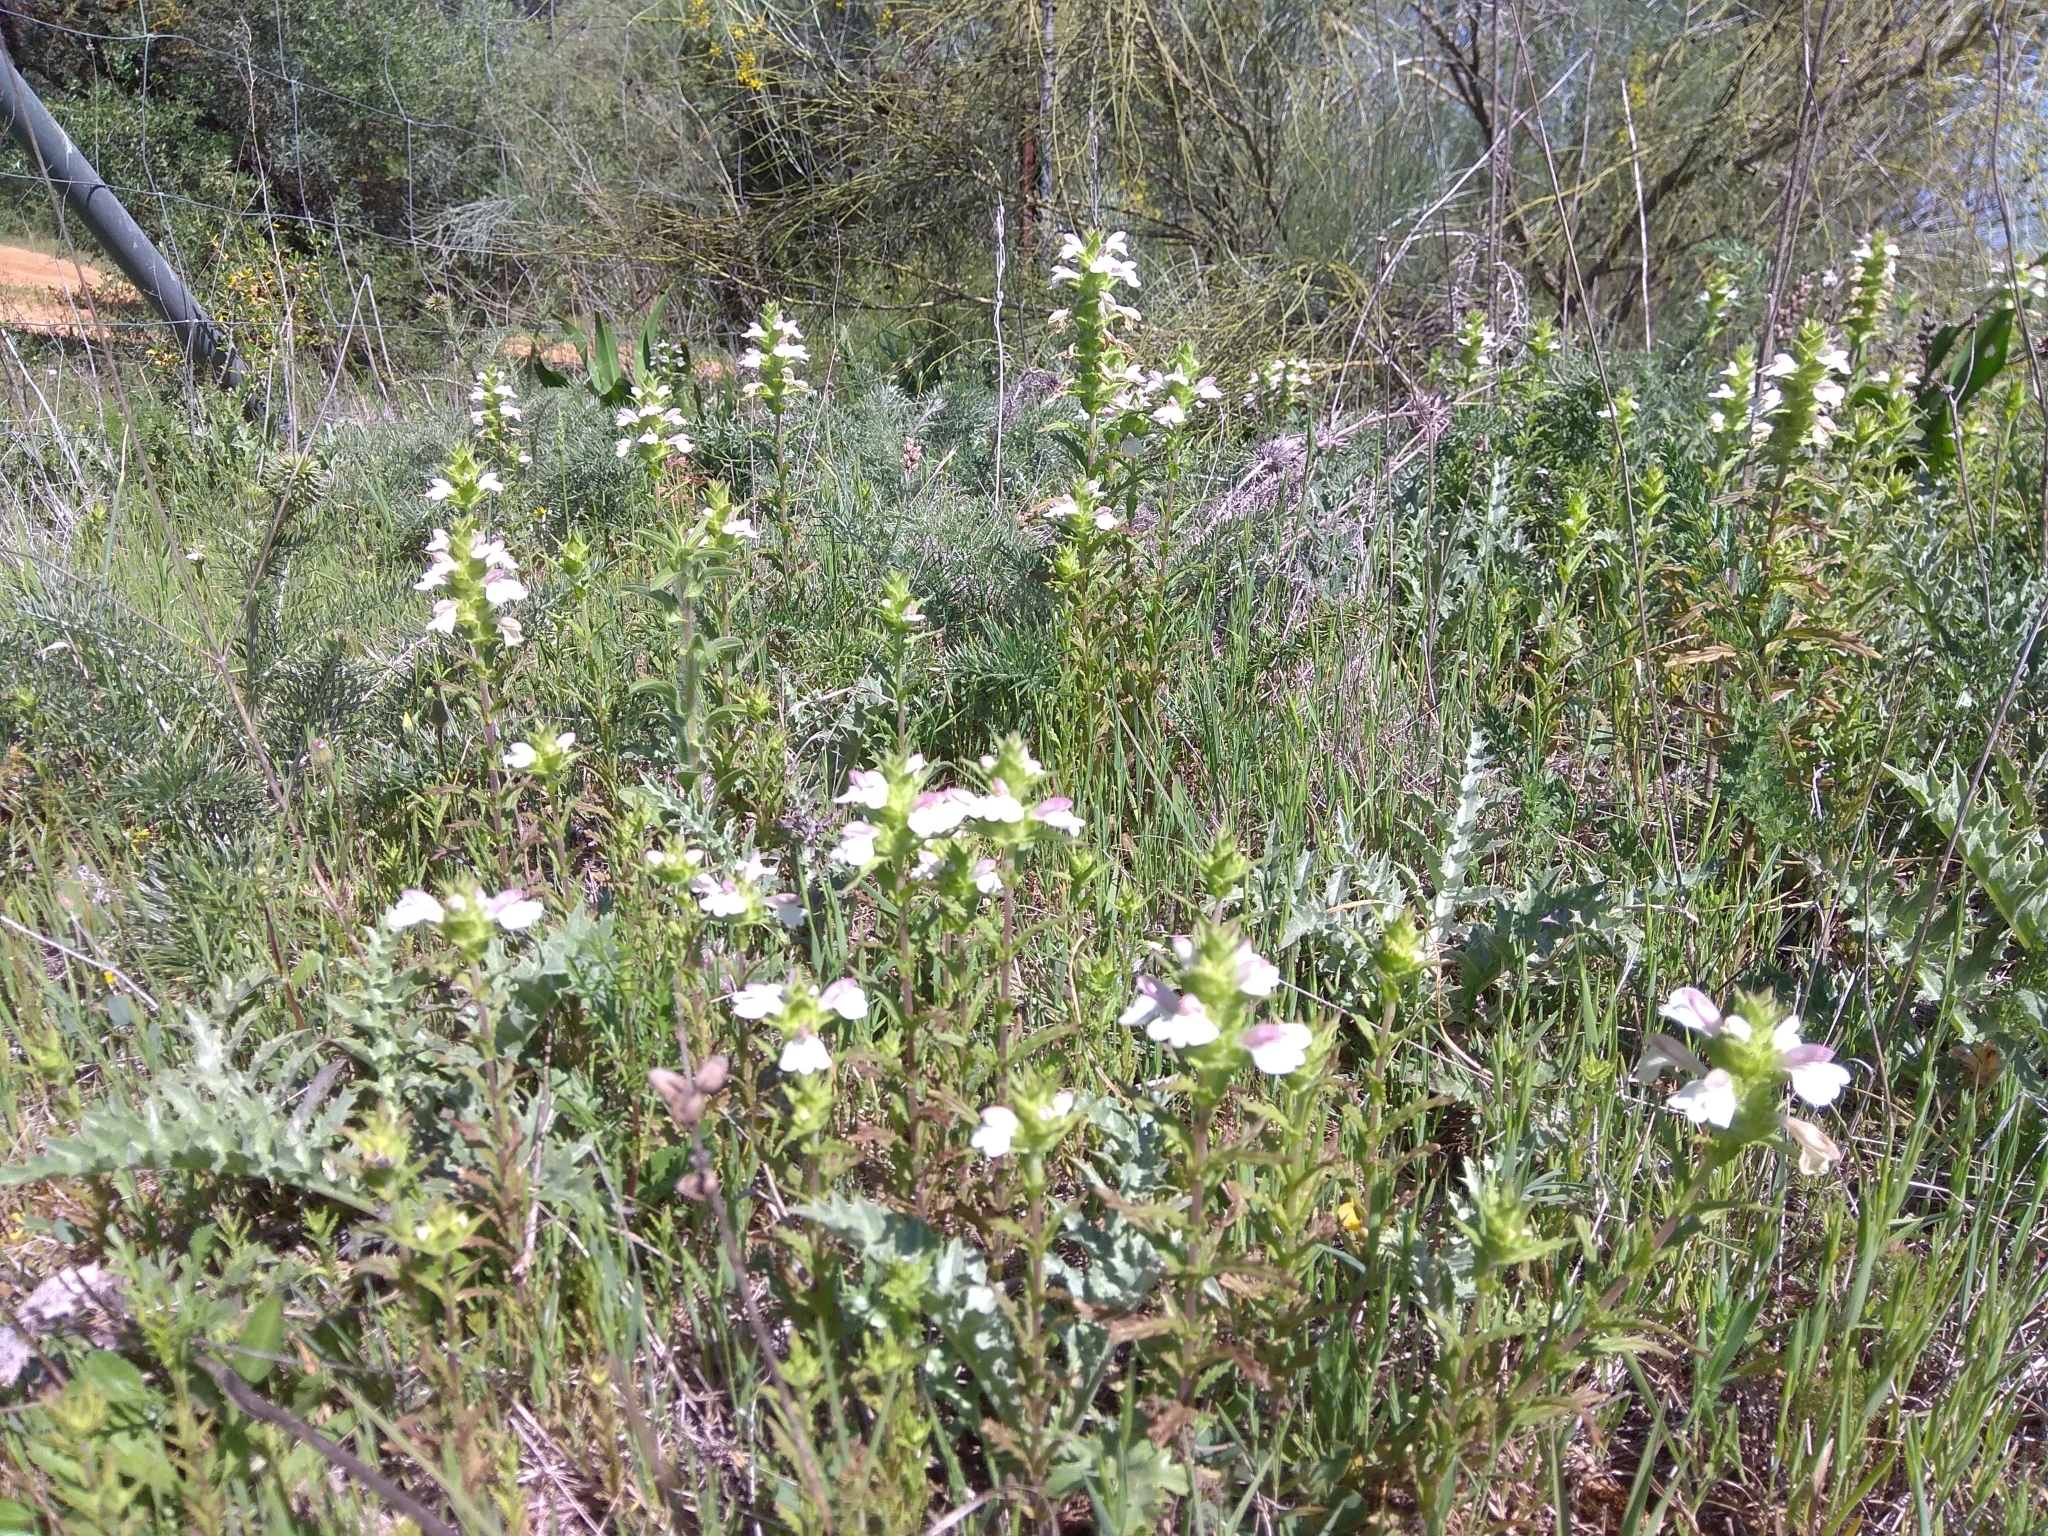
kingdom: Plantae
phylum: Tracheophyta
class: Magnoliopsida
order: Lamiales
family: Orobanchaceae
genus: Bellardia
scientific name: Bellardia trixago
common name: Mediterranean lineseed
